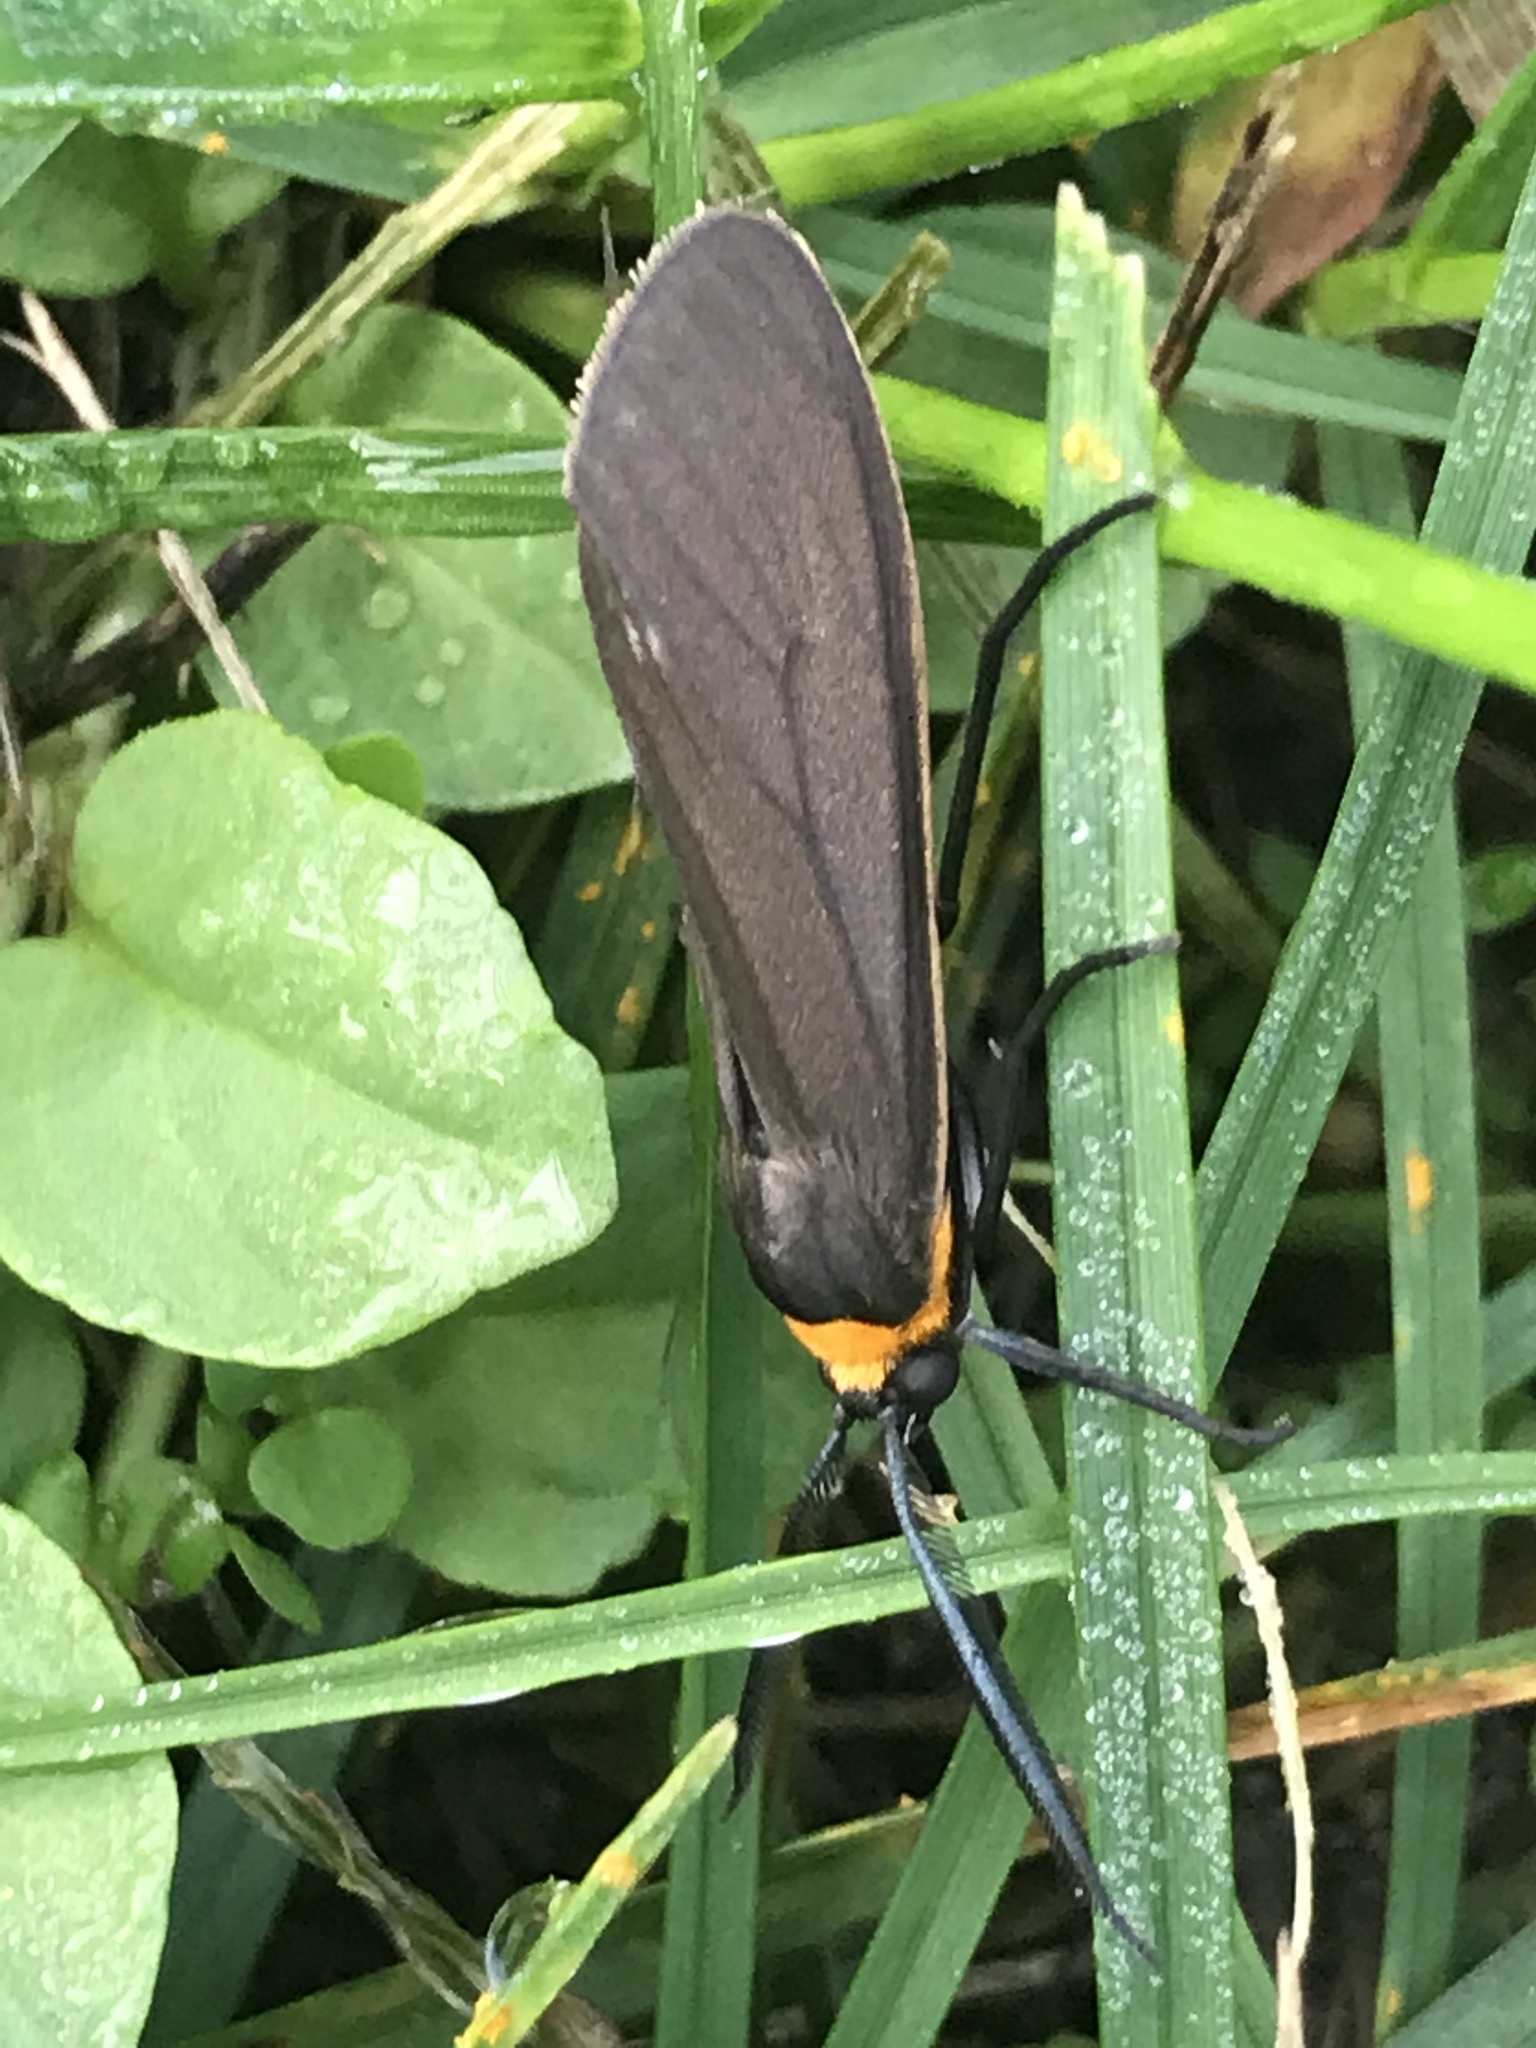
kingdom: Animalia
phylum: Arthropoda
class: Insecta
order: Lepidoptera
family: Erebidae
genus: Cisseps
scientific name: Cisseps fulvicollis
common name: Yellow-collared scape moth
